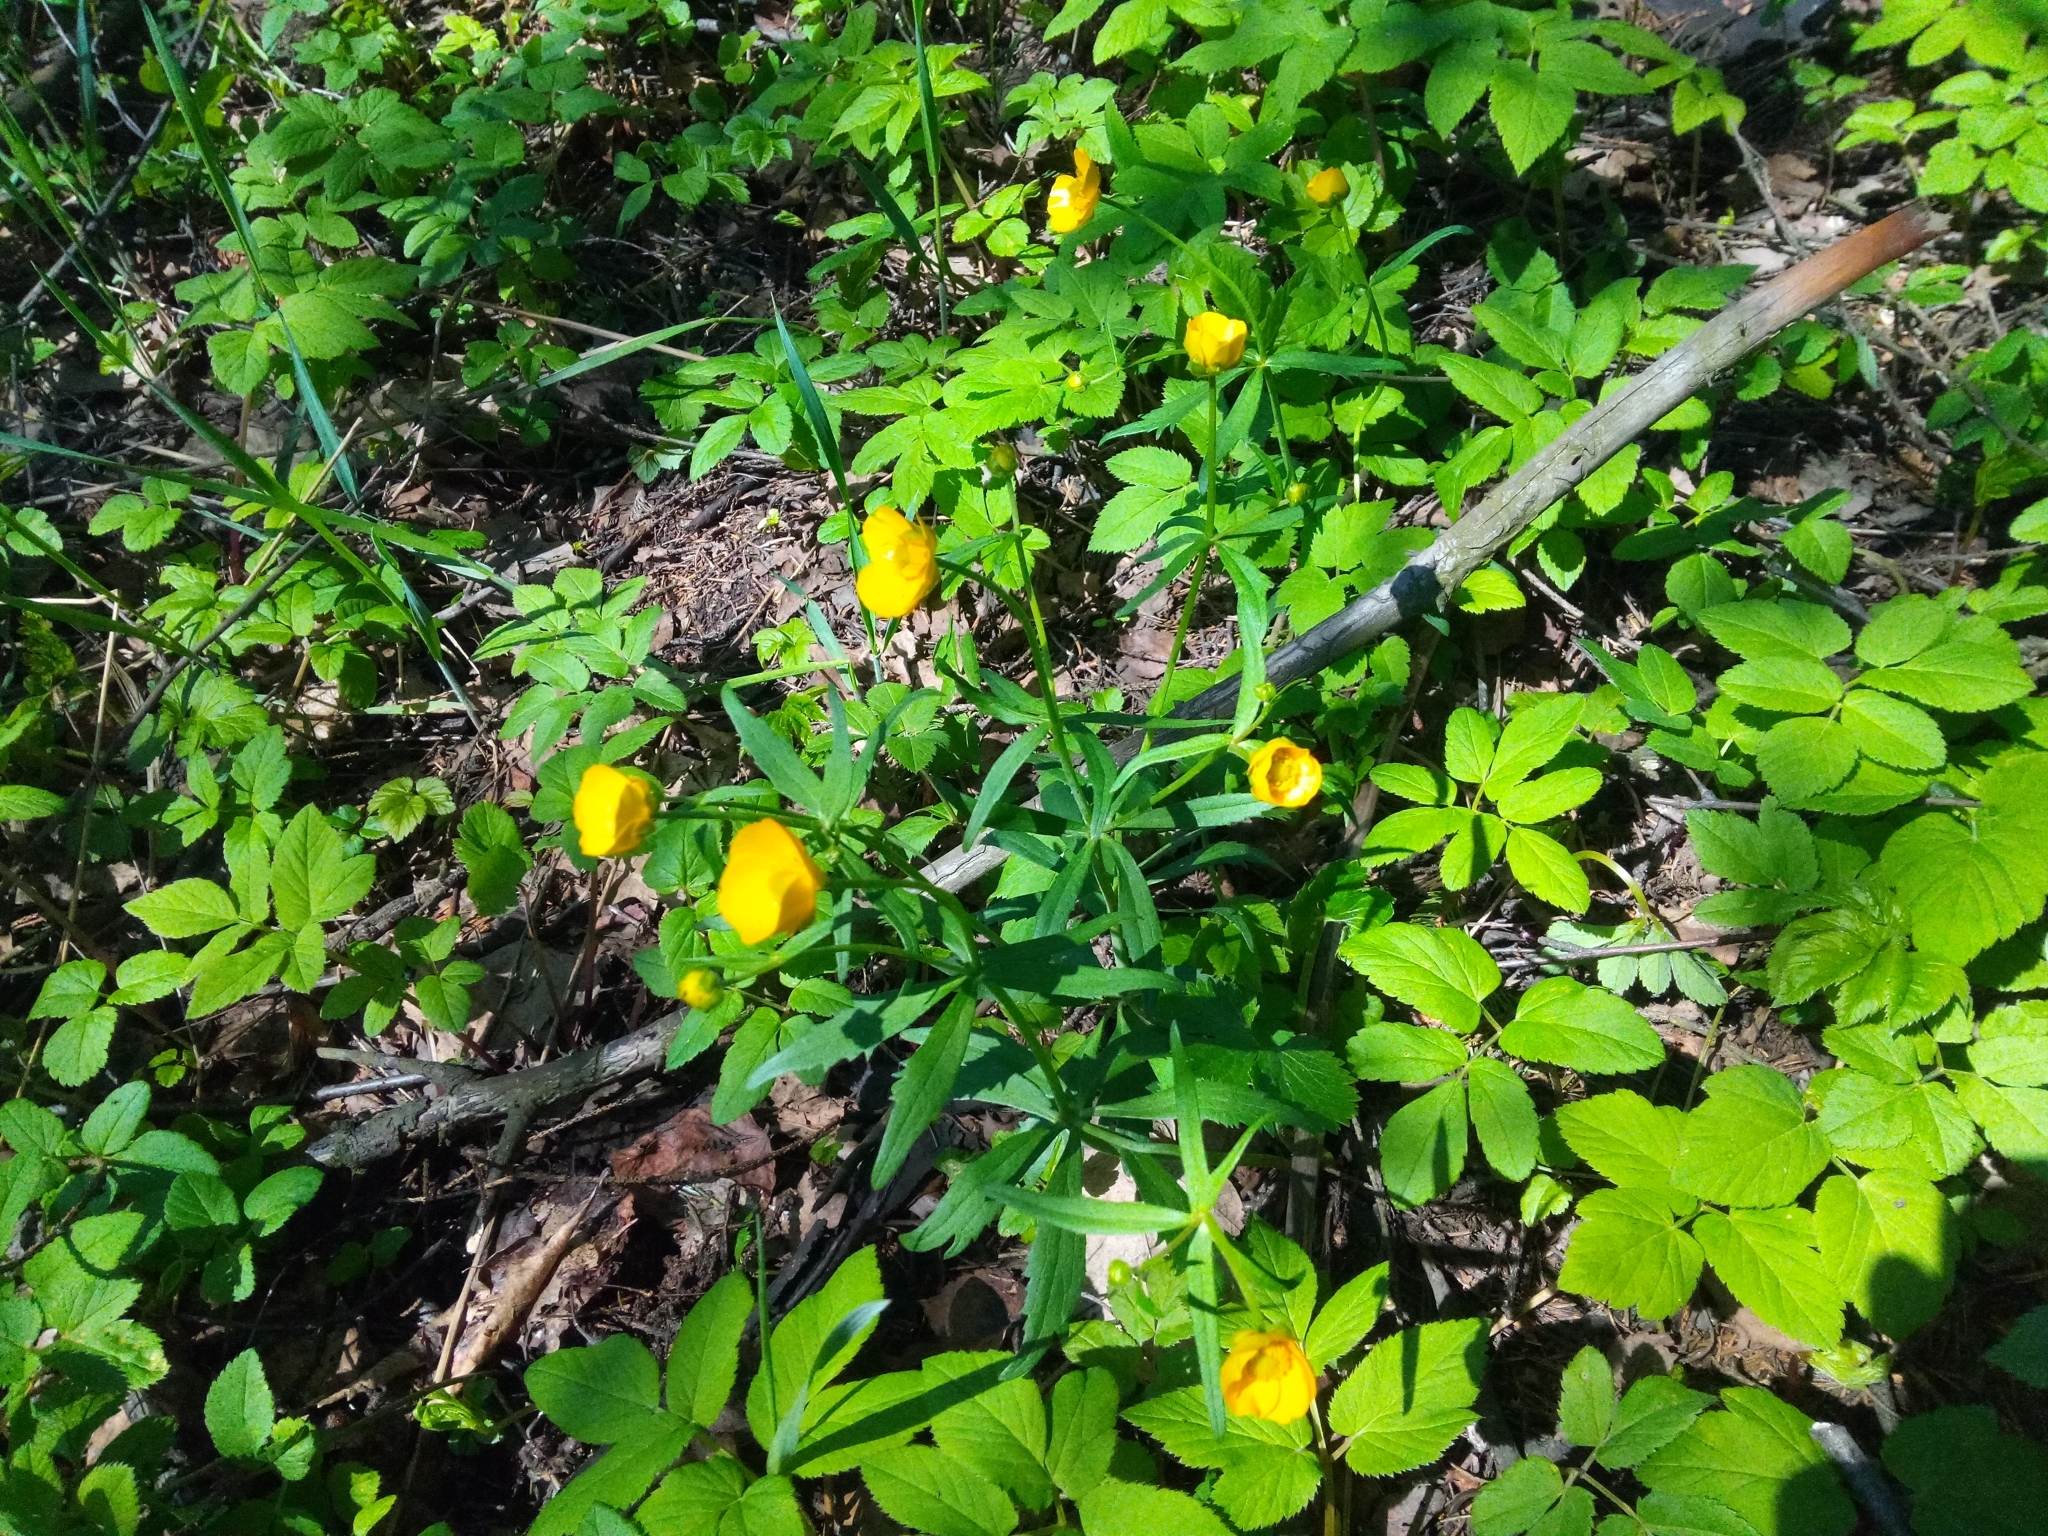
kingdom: Plantae
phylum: Tracheophyta
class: Magnoliopsida
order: Ranunculales
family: Ranunculaceae
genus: Ranunculus
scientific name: Ranunculus cassubicus
